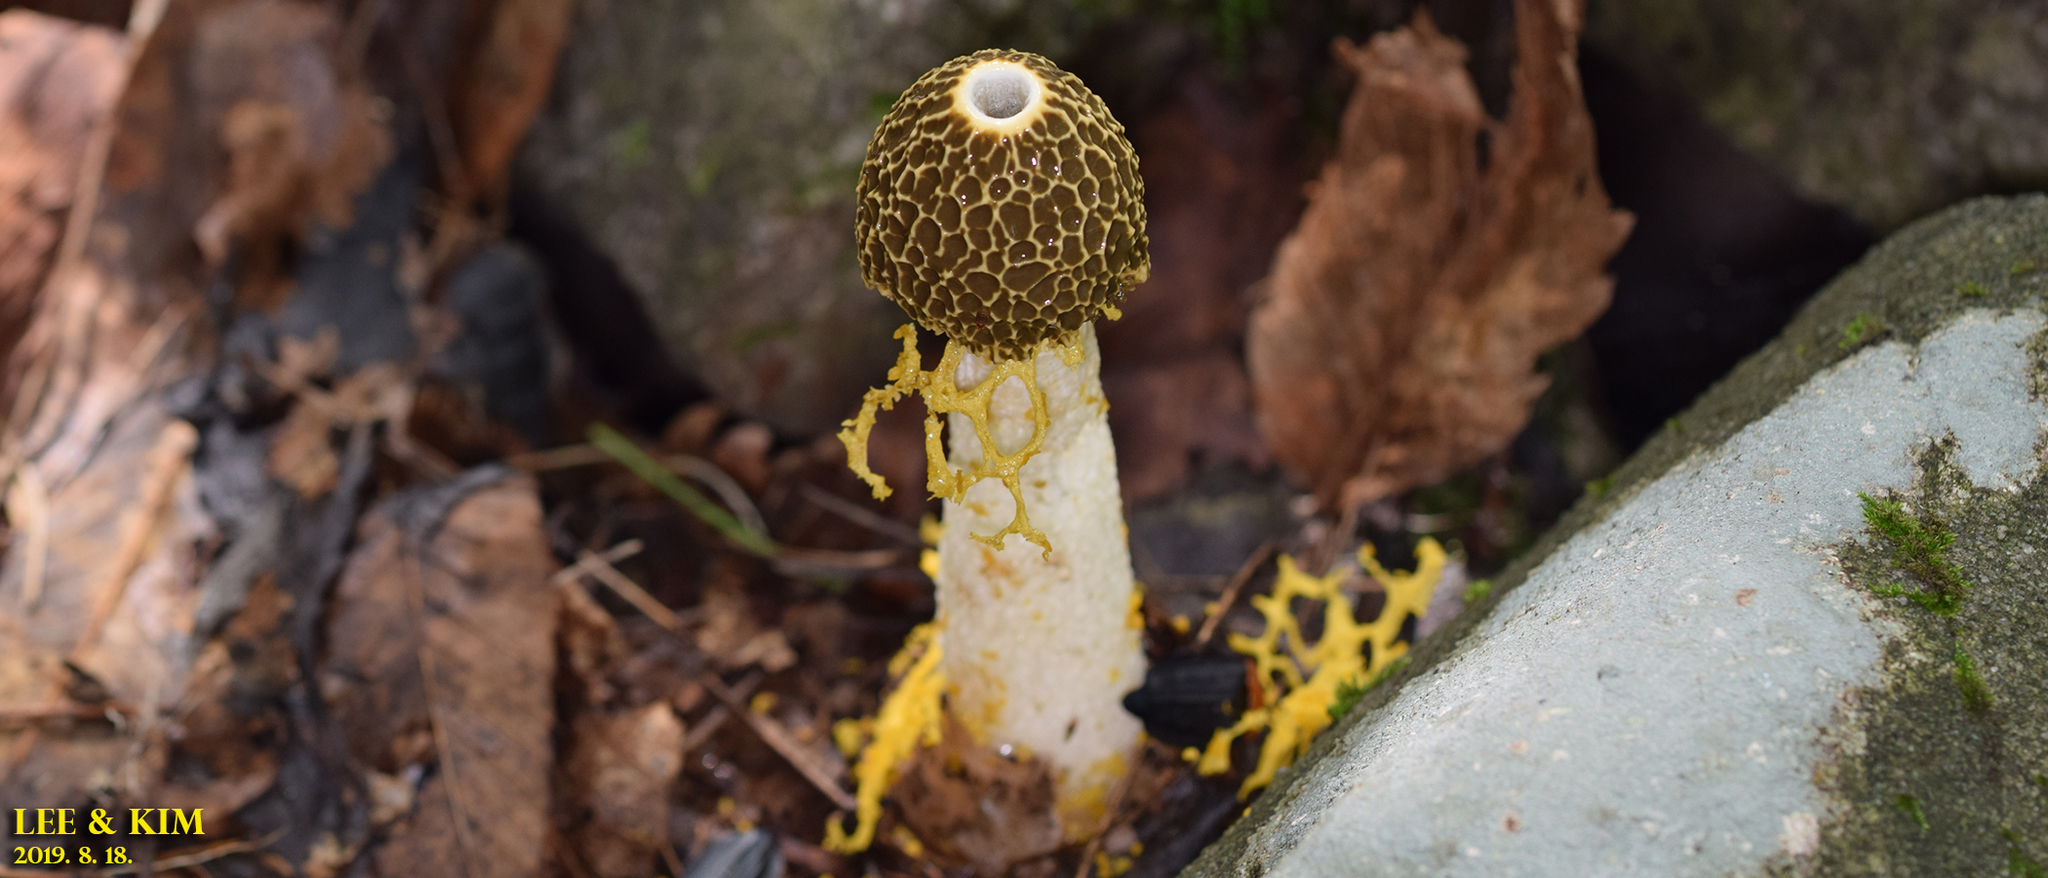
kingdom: Fungi
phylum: Basidiomycota
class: Agaricomycetes
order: Phallales
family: Phallaceae
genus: Phallus
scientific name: Phallus luteus
